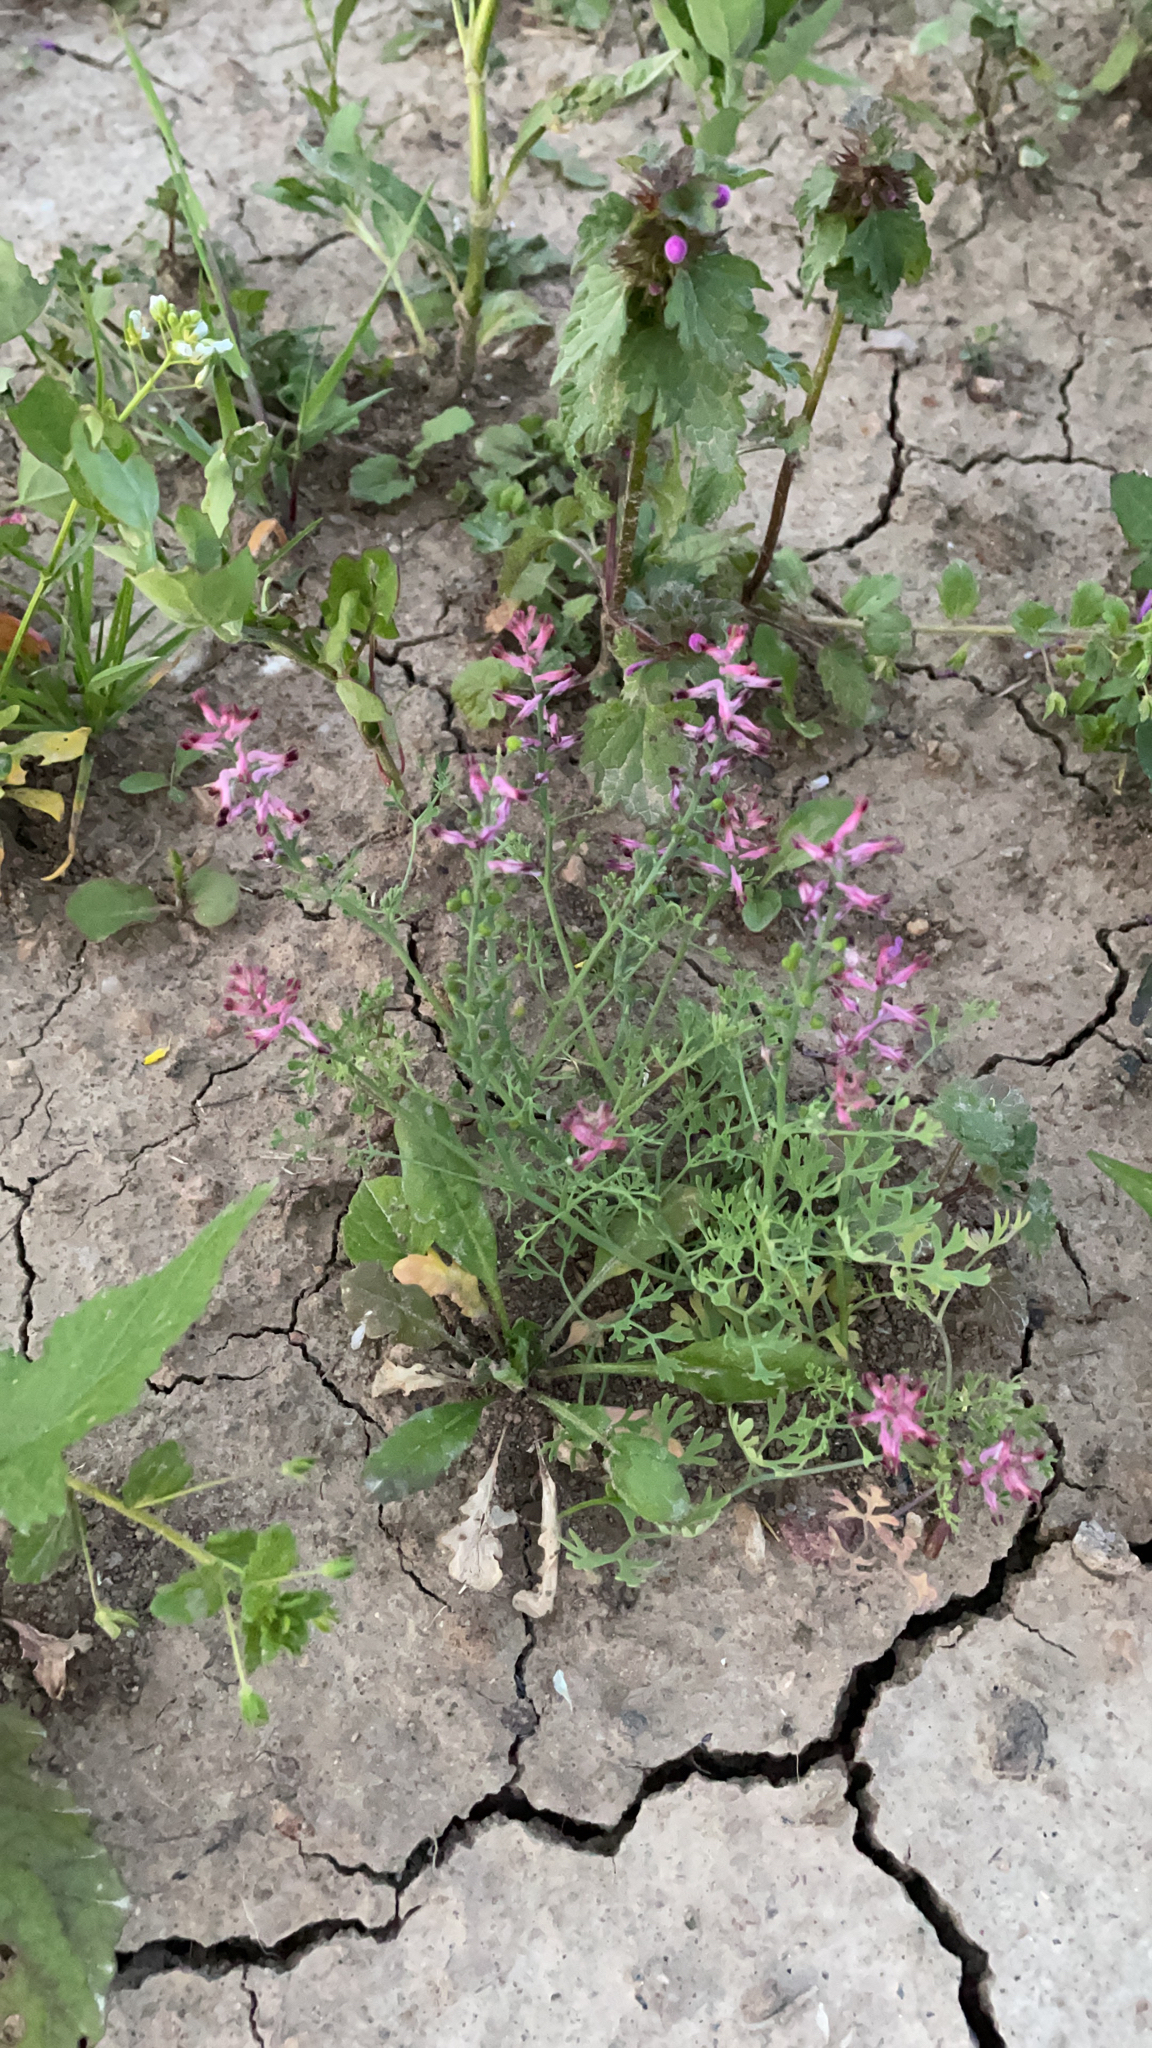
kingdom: Plantae
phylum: Tracheophyta
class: Magnoliopsida
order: Ranunculales
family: Papaveraceae
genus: Fumaria
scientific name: Fumaria officinalis
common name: Common fumitory
